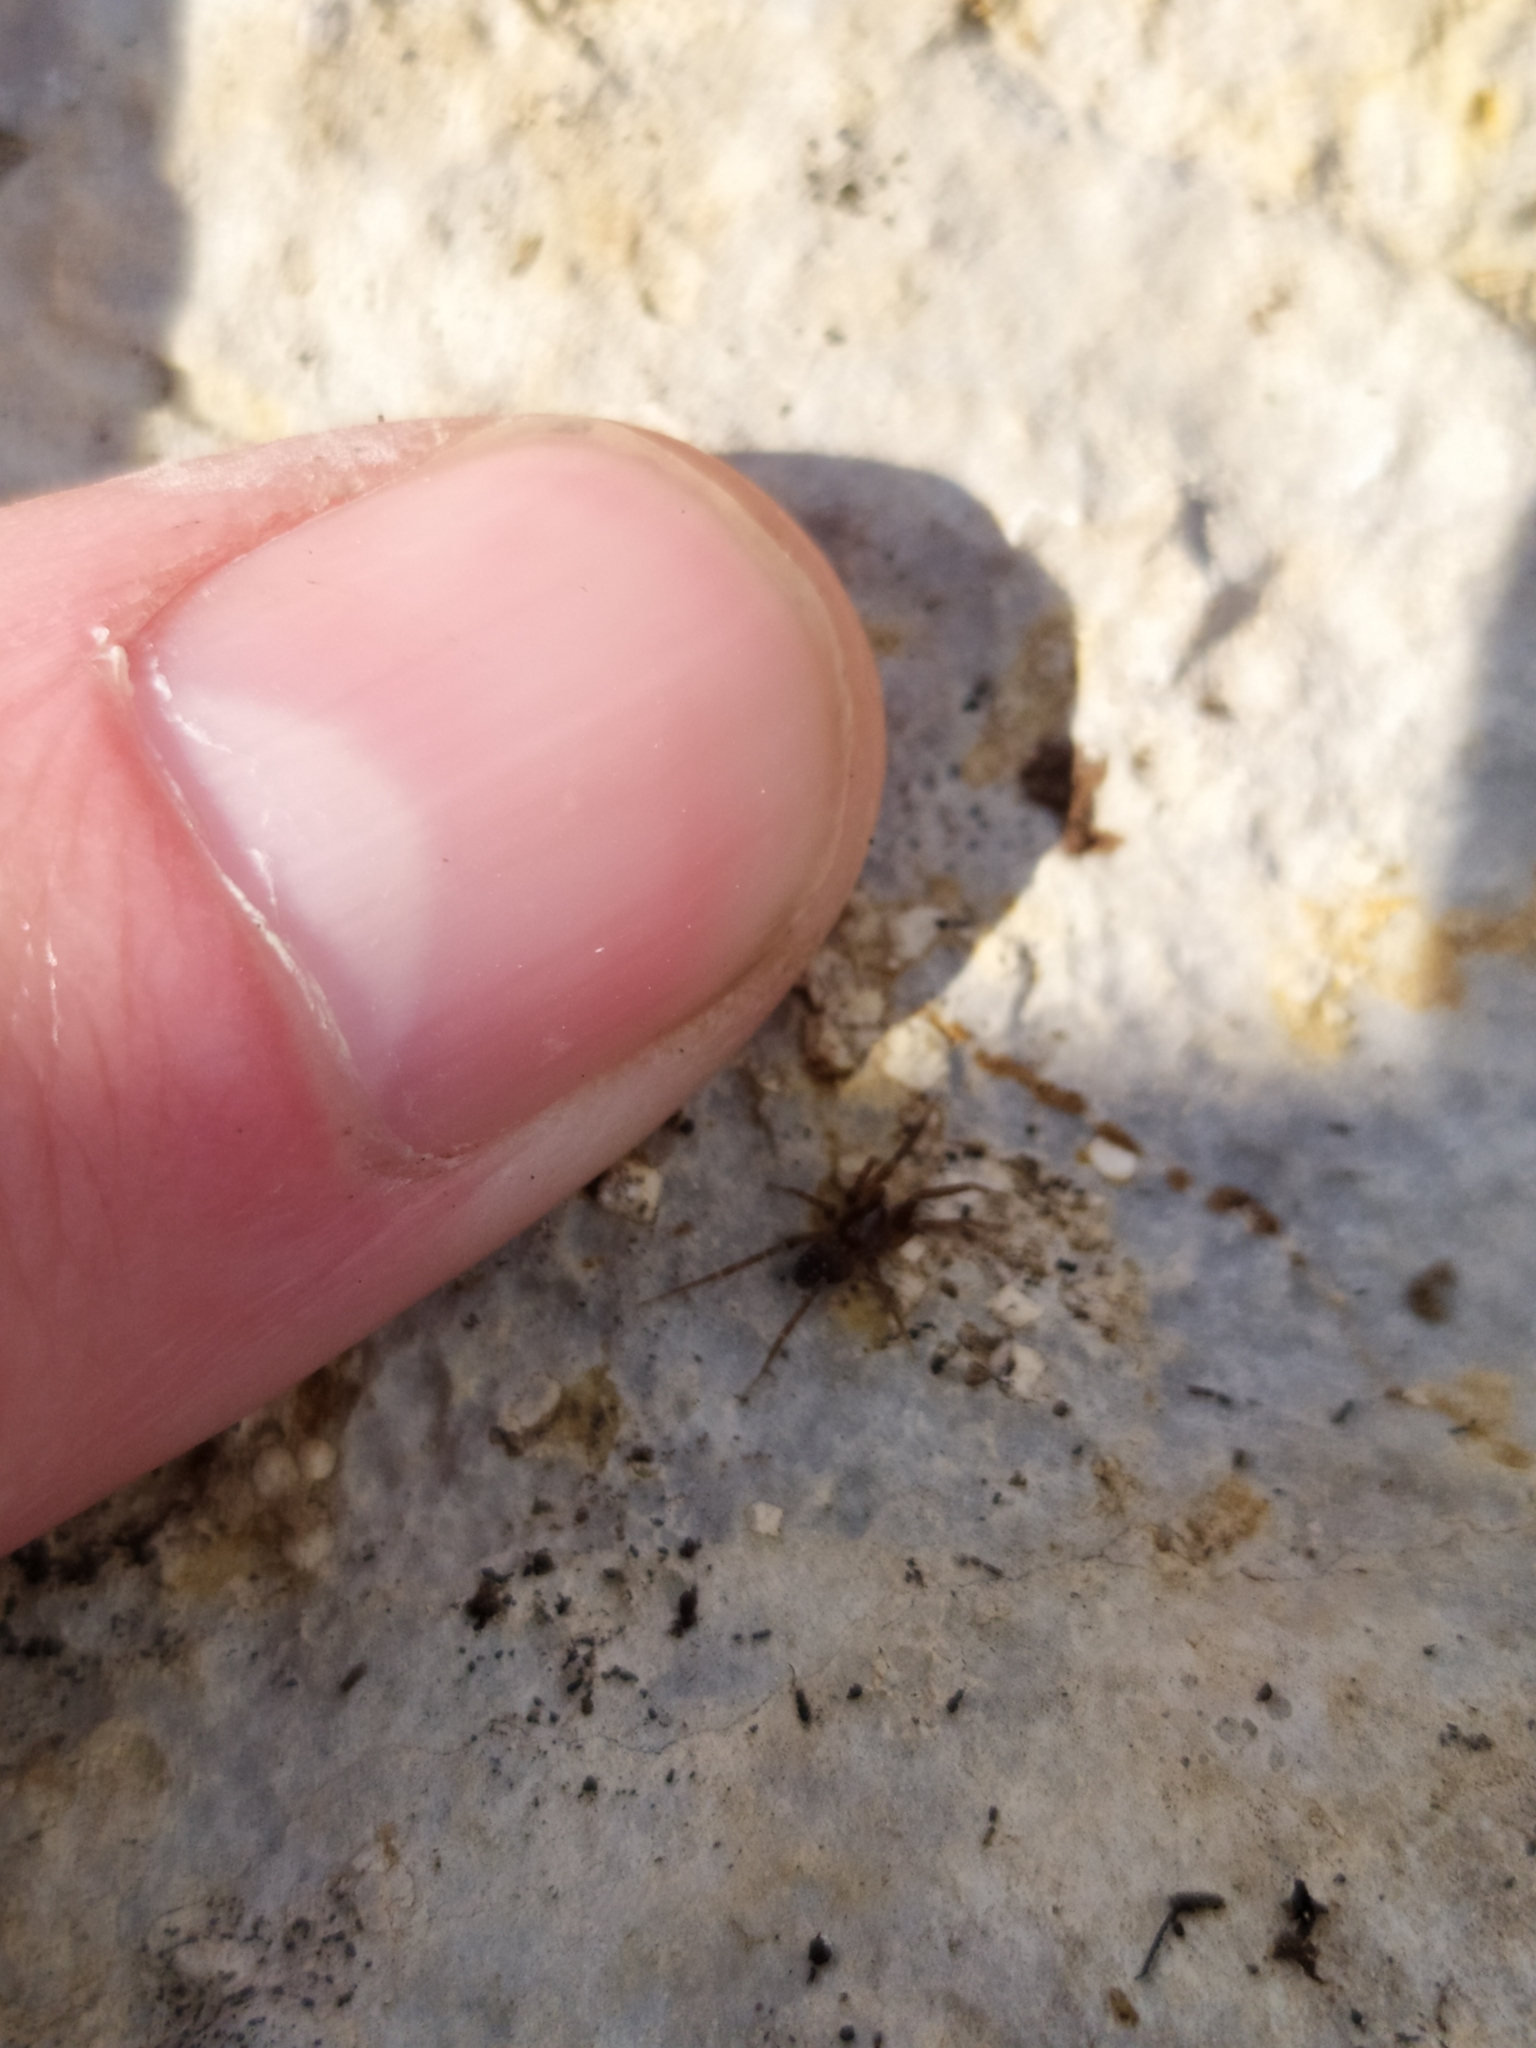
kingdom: Animalia
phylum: Arthropoda
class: Arachnida
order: Araneae
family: Liocranidae
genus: Apostenus
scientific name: Apostenus fuscus
